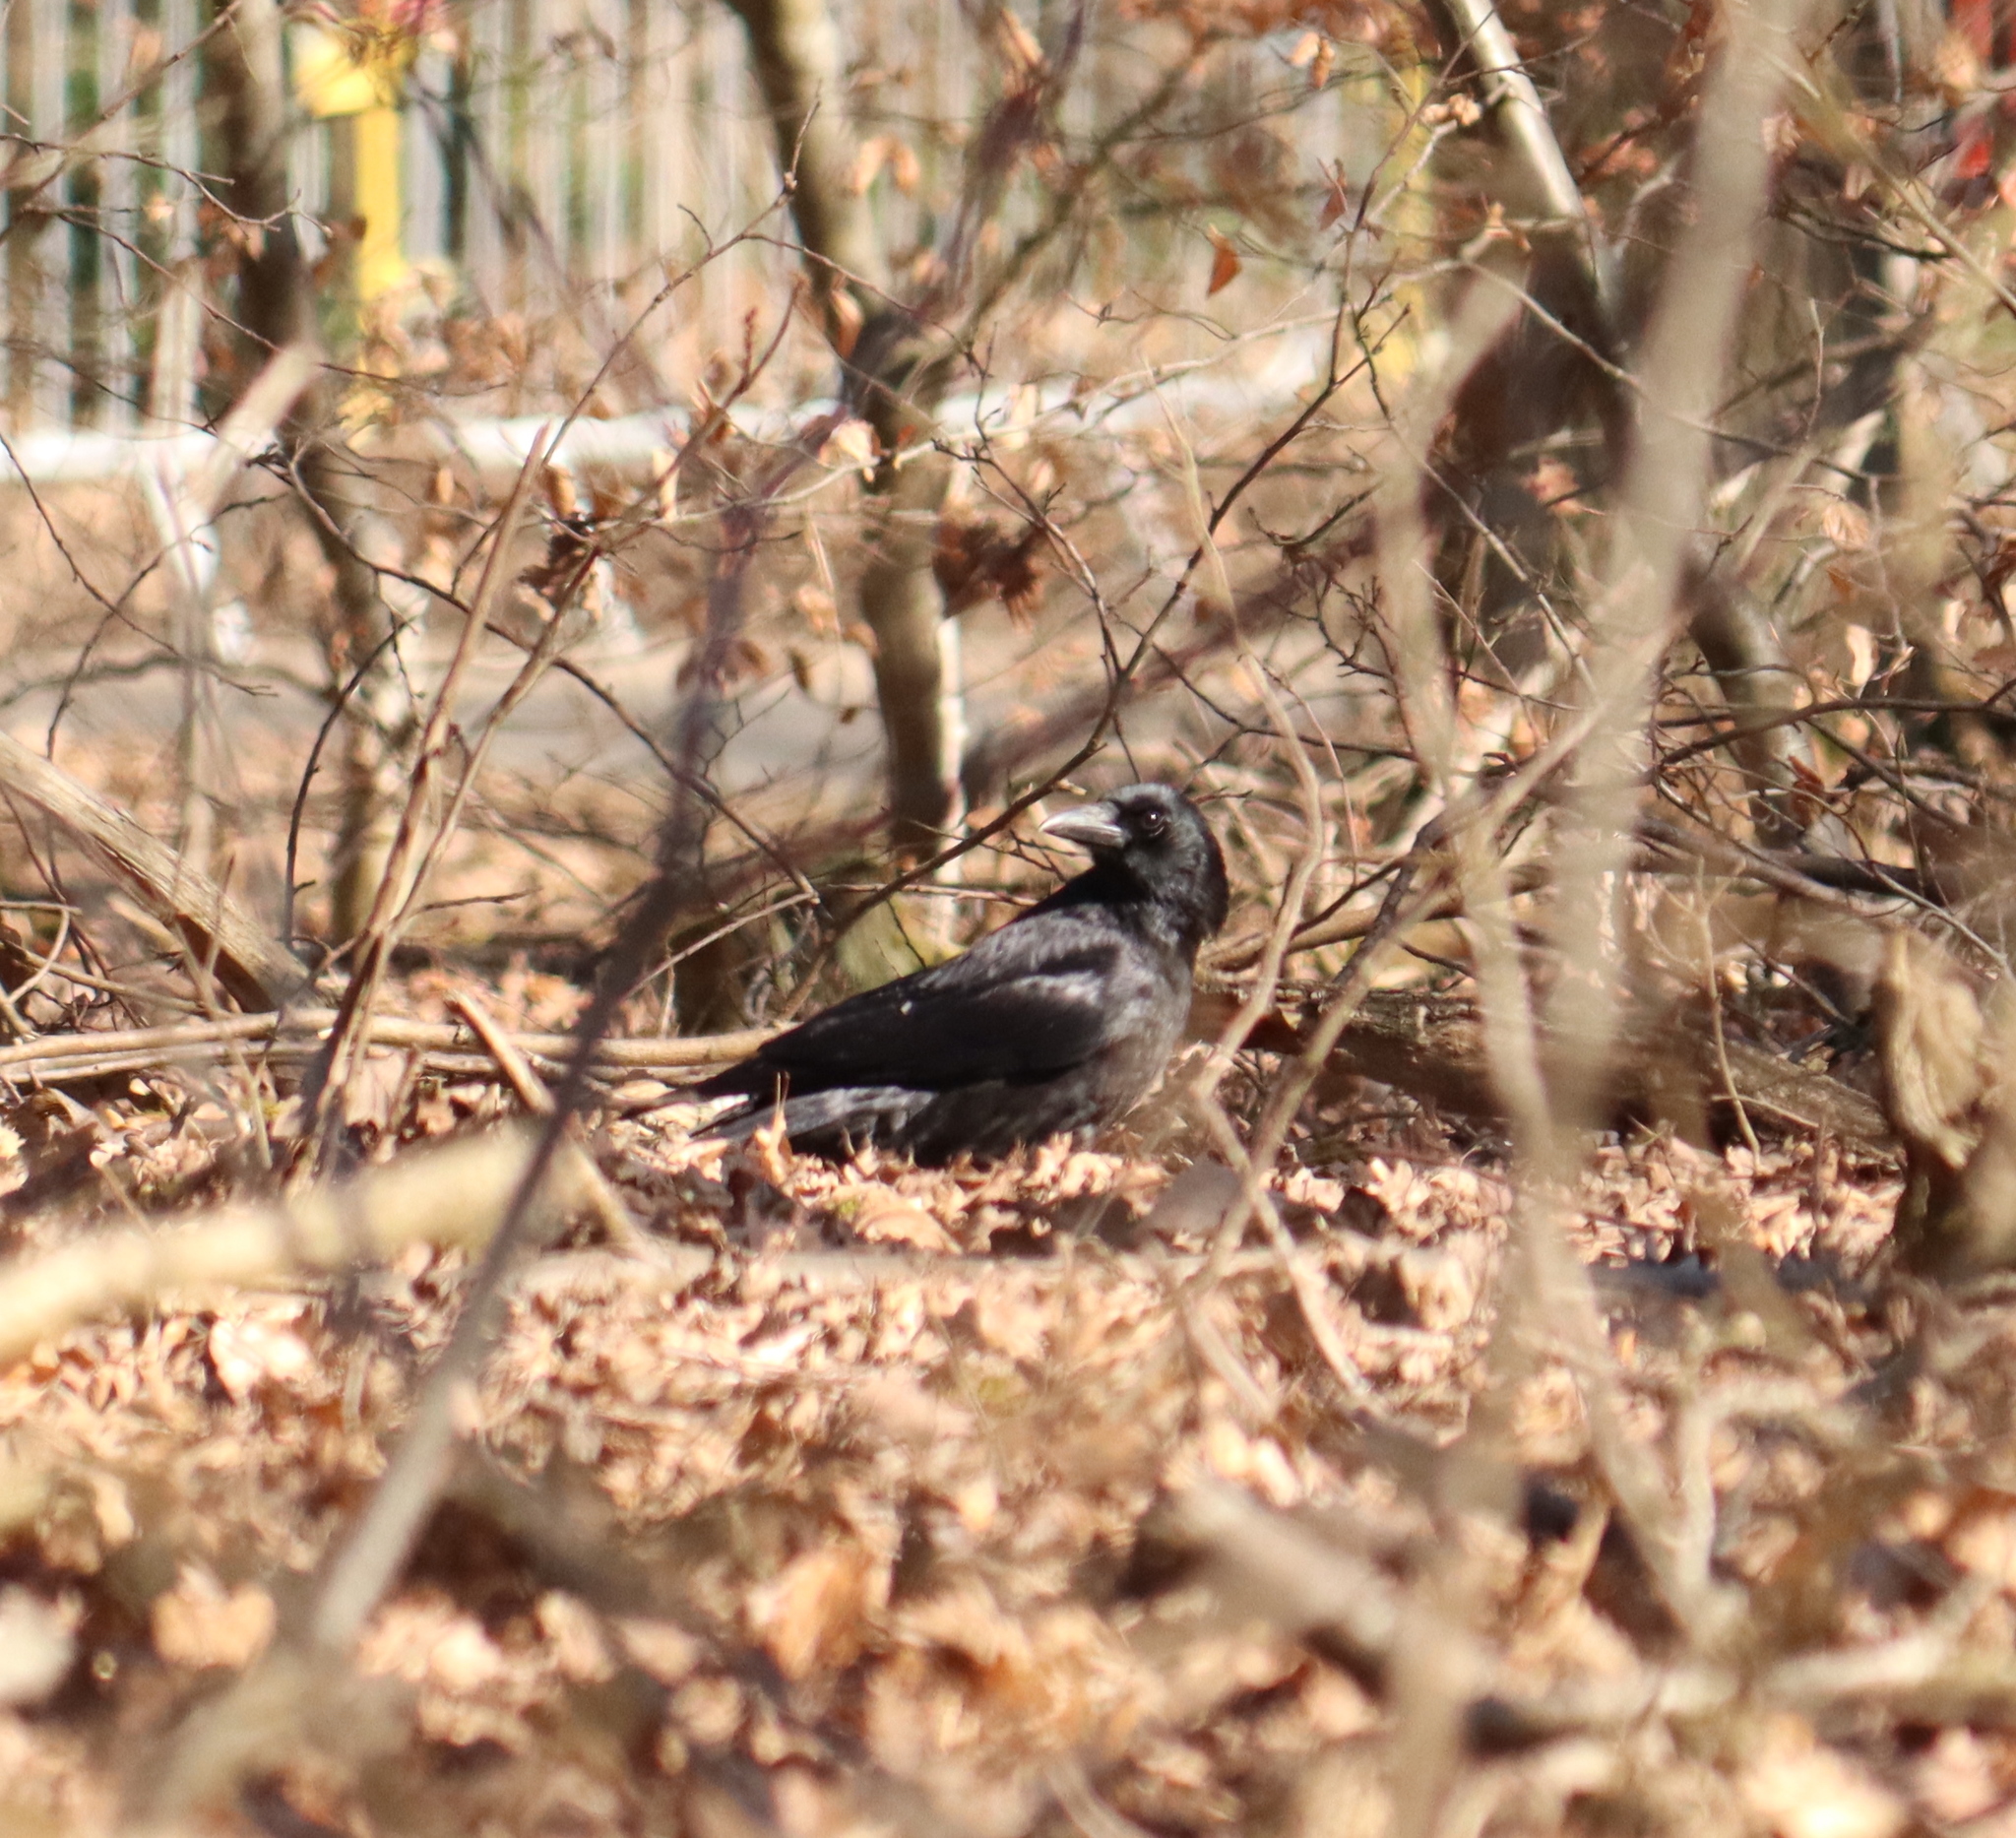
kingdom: Animalia
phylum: Chordata
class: Aves
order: Passeriformes
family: Corvidae
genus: Corvus
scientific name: Corvus corone
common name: Carrion crow
